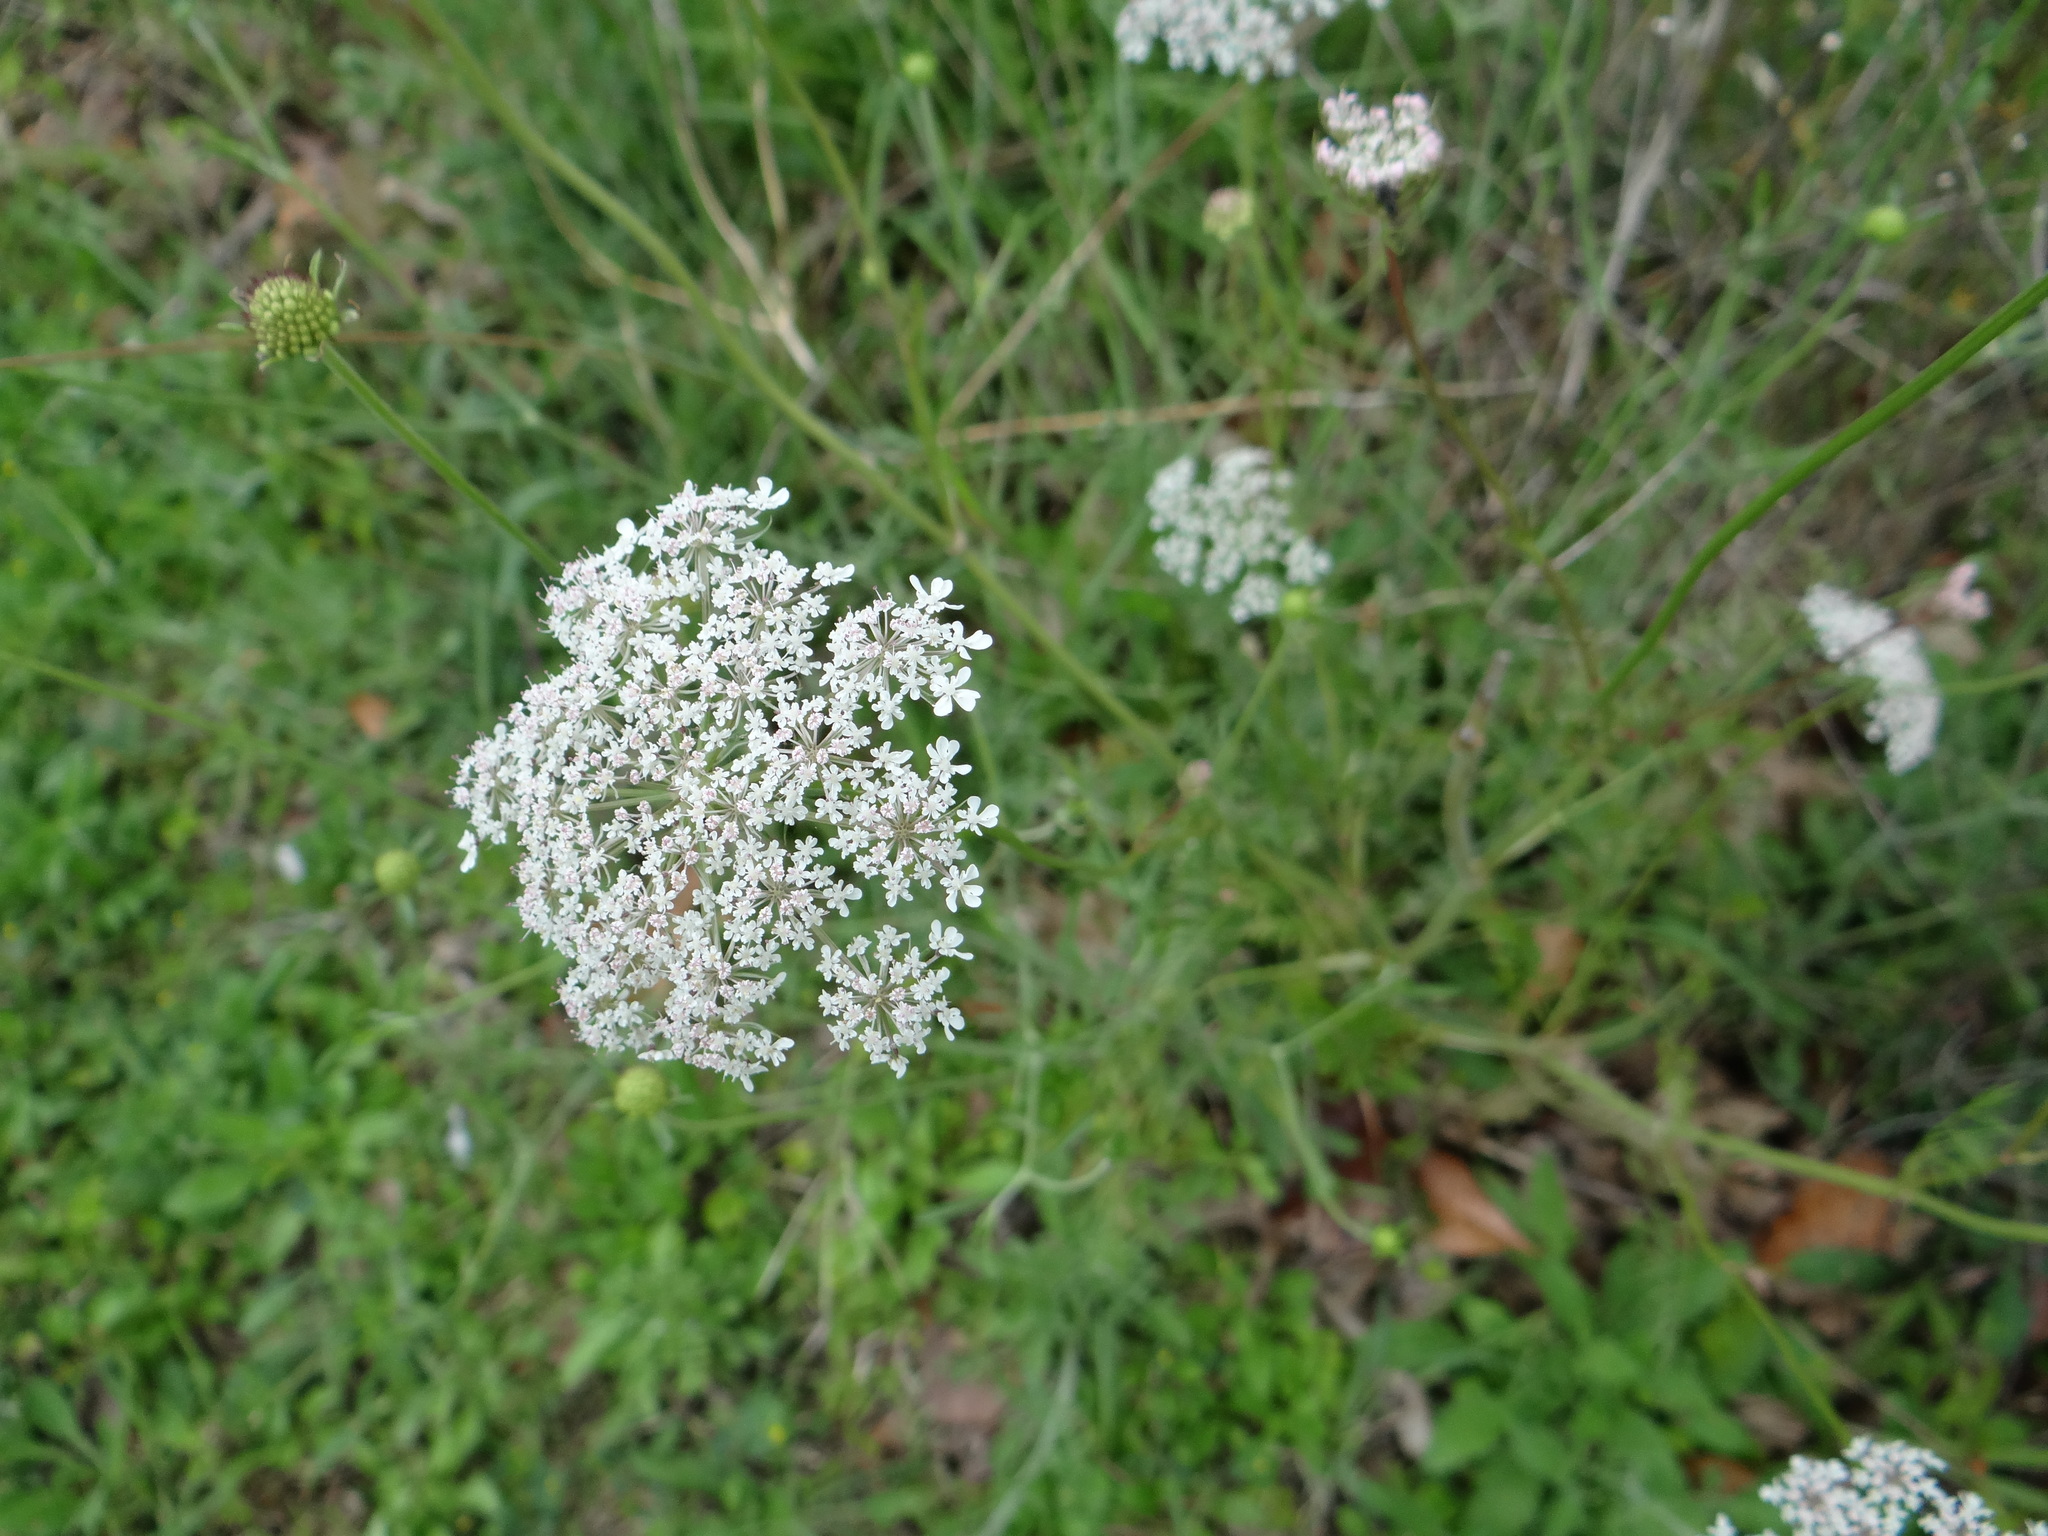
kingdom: Plantae
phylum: Tracheophyta
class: Magnoliopsida
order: Apiales
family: Apiaceae
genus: Daucus
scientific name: Daucus carota
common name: Wild carrot
